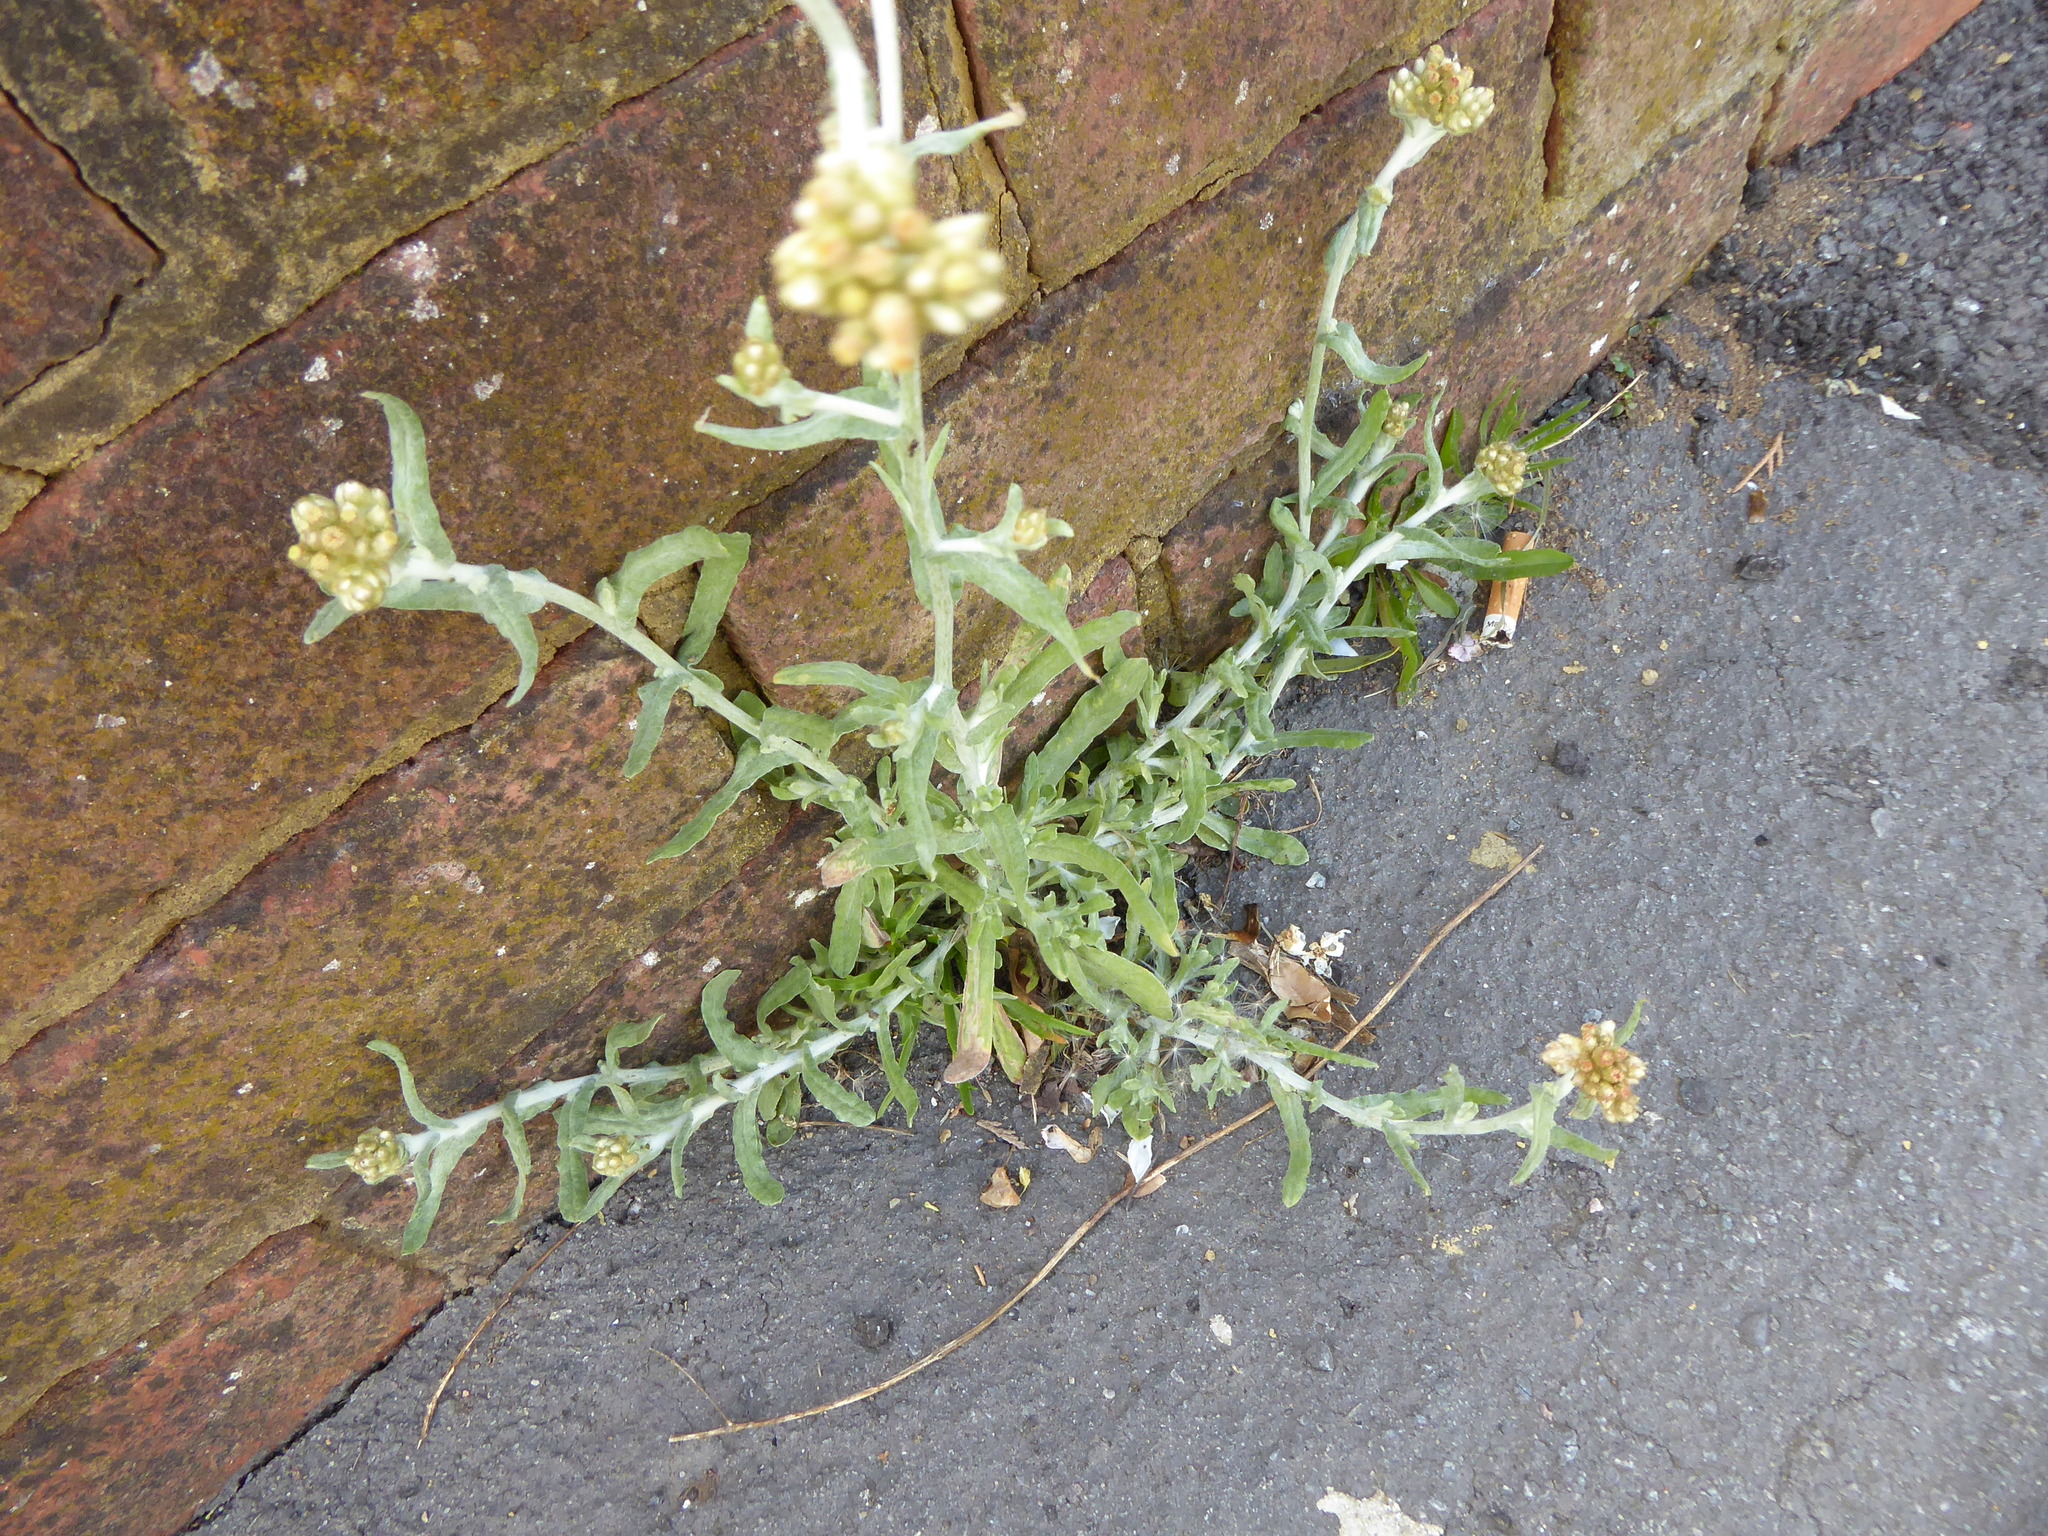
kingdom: Plantae
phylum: Tracheophyta
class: Magnoliopsida
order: Asterales
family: Asteraceae
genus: Helichrysum
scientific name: Helichrysum luteoalbum
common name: Daisy
